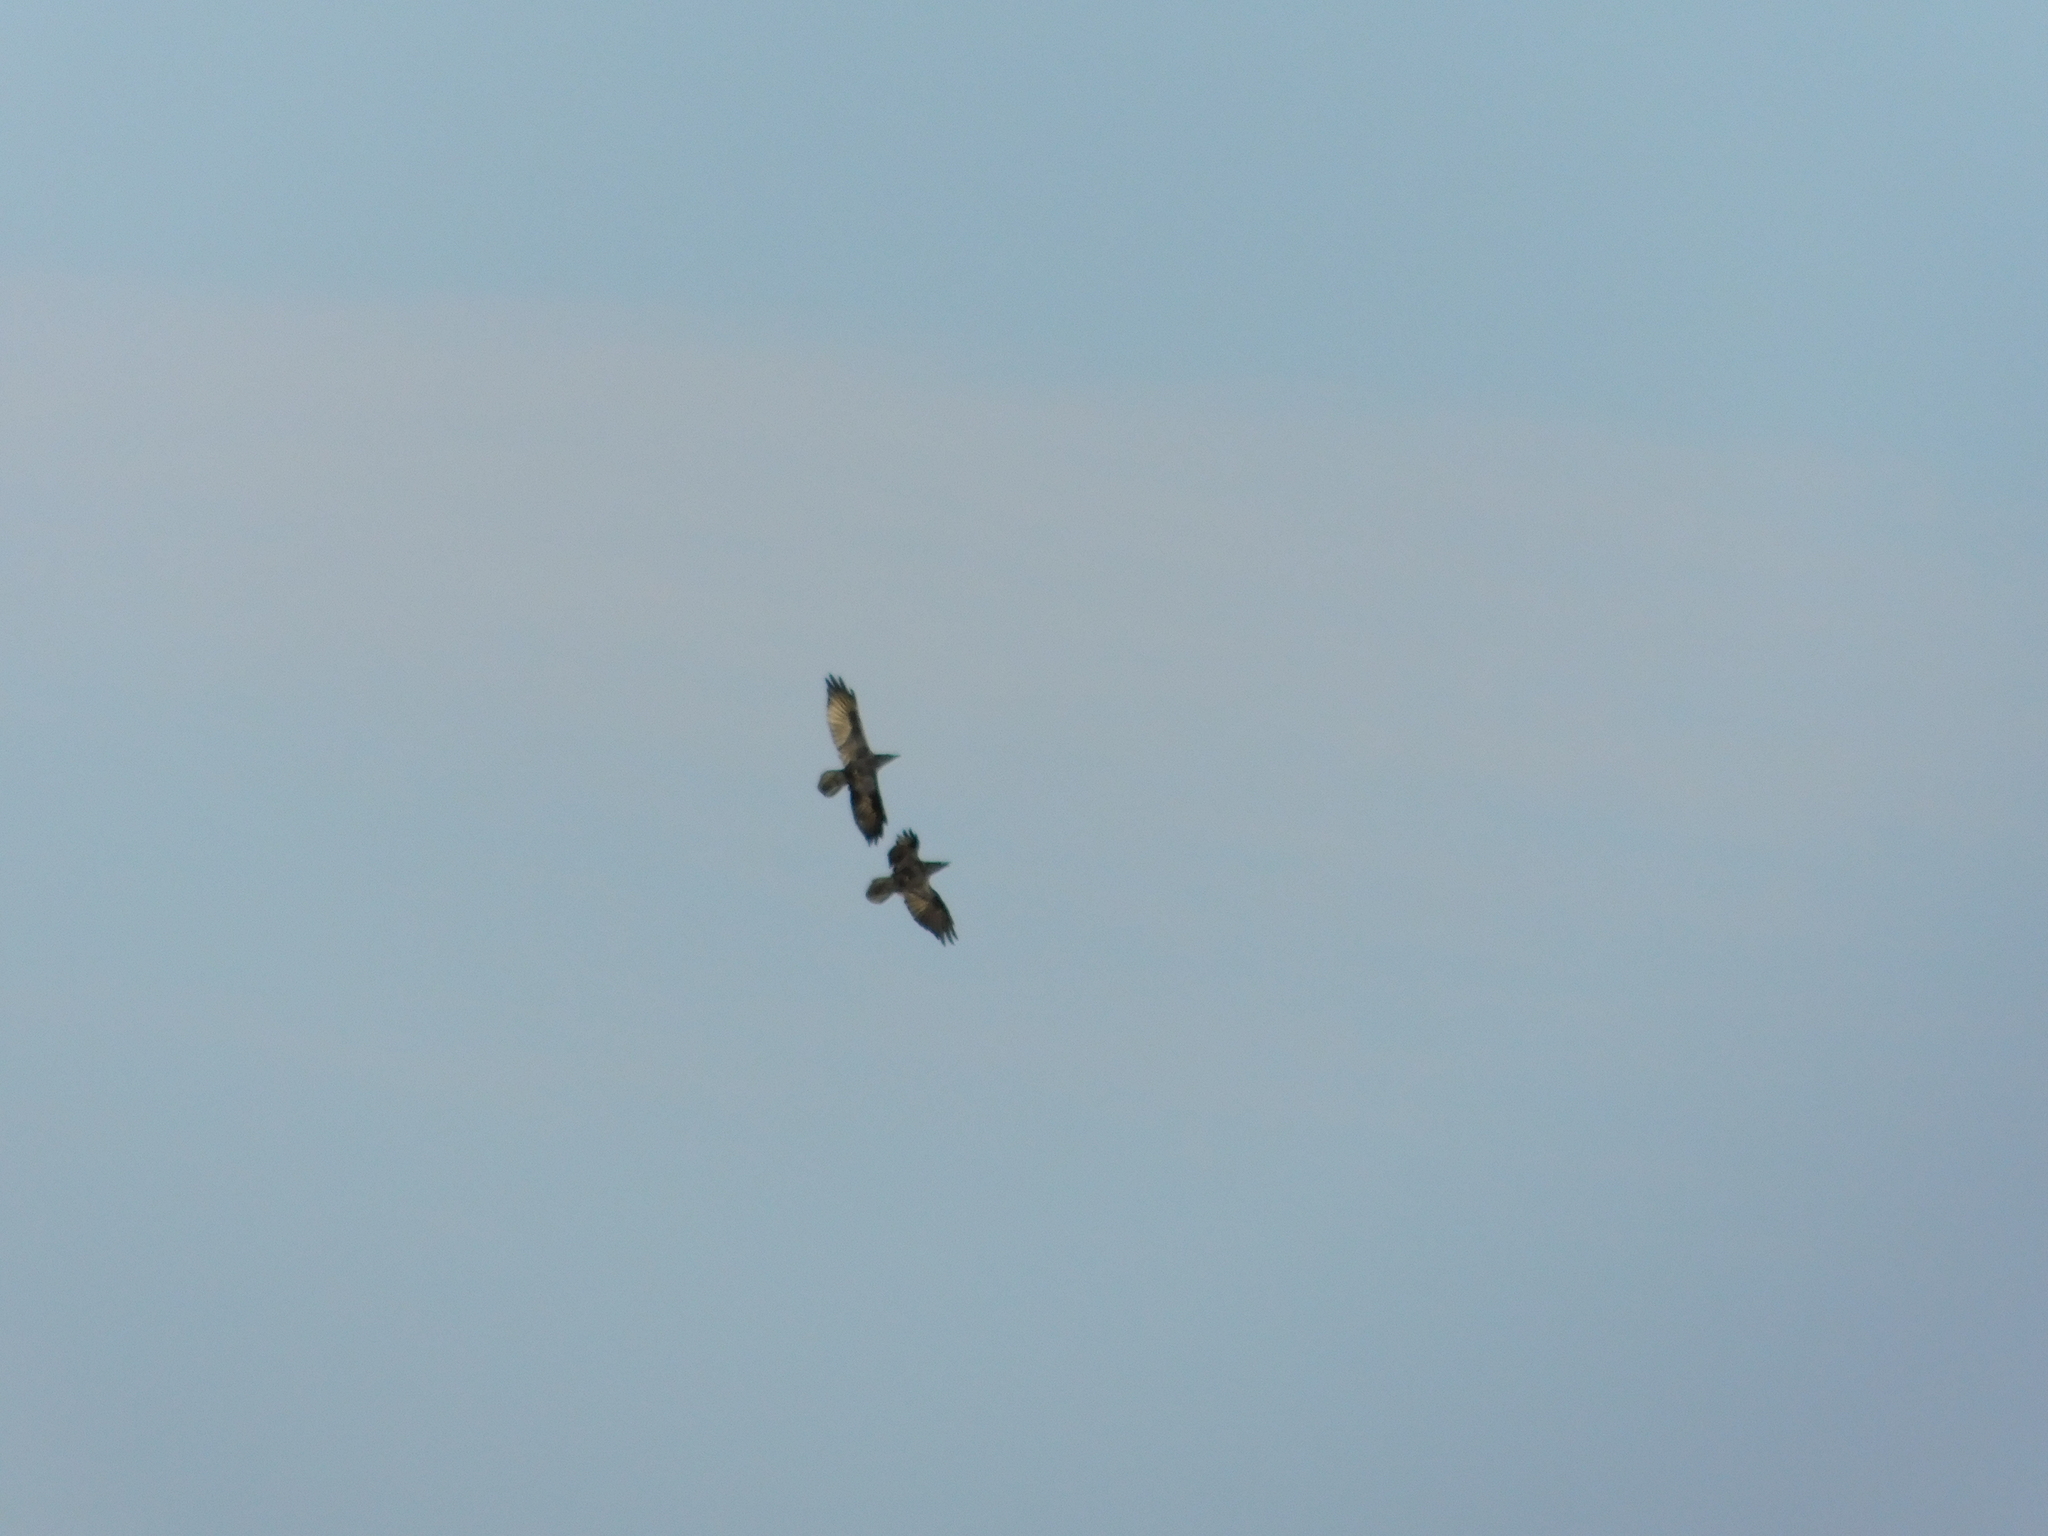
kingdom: Animalia
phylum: Chordata
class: Aves
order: Passeriformes
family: Corvidae
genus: Corvus
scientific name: Corvus corax
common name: Common raven
